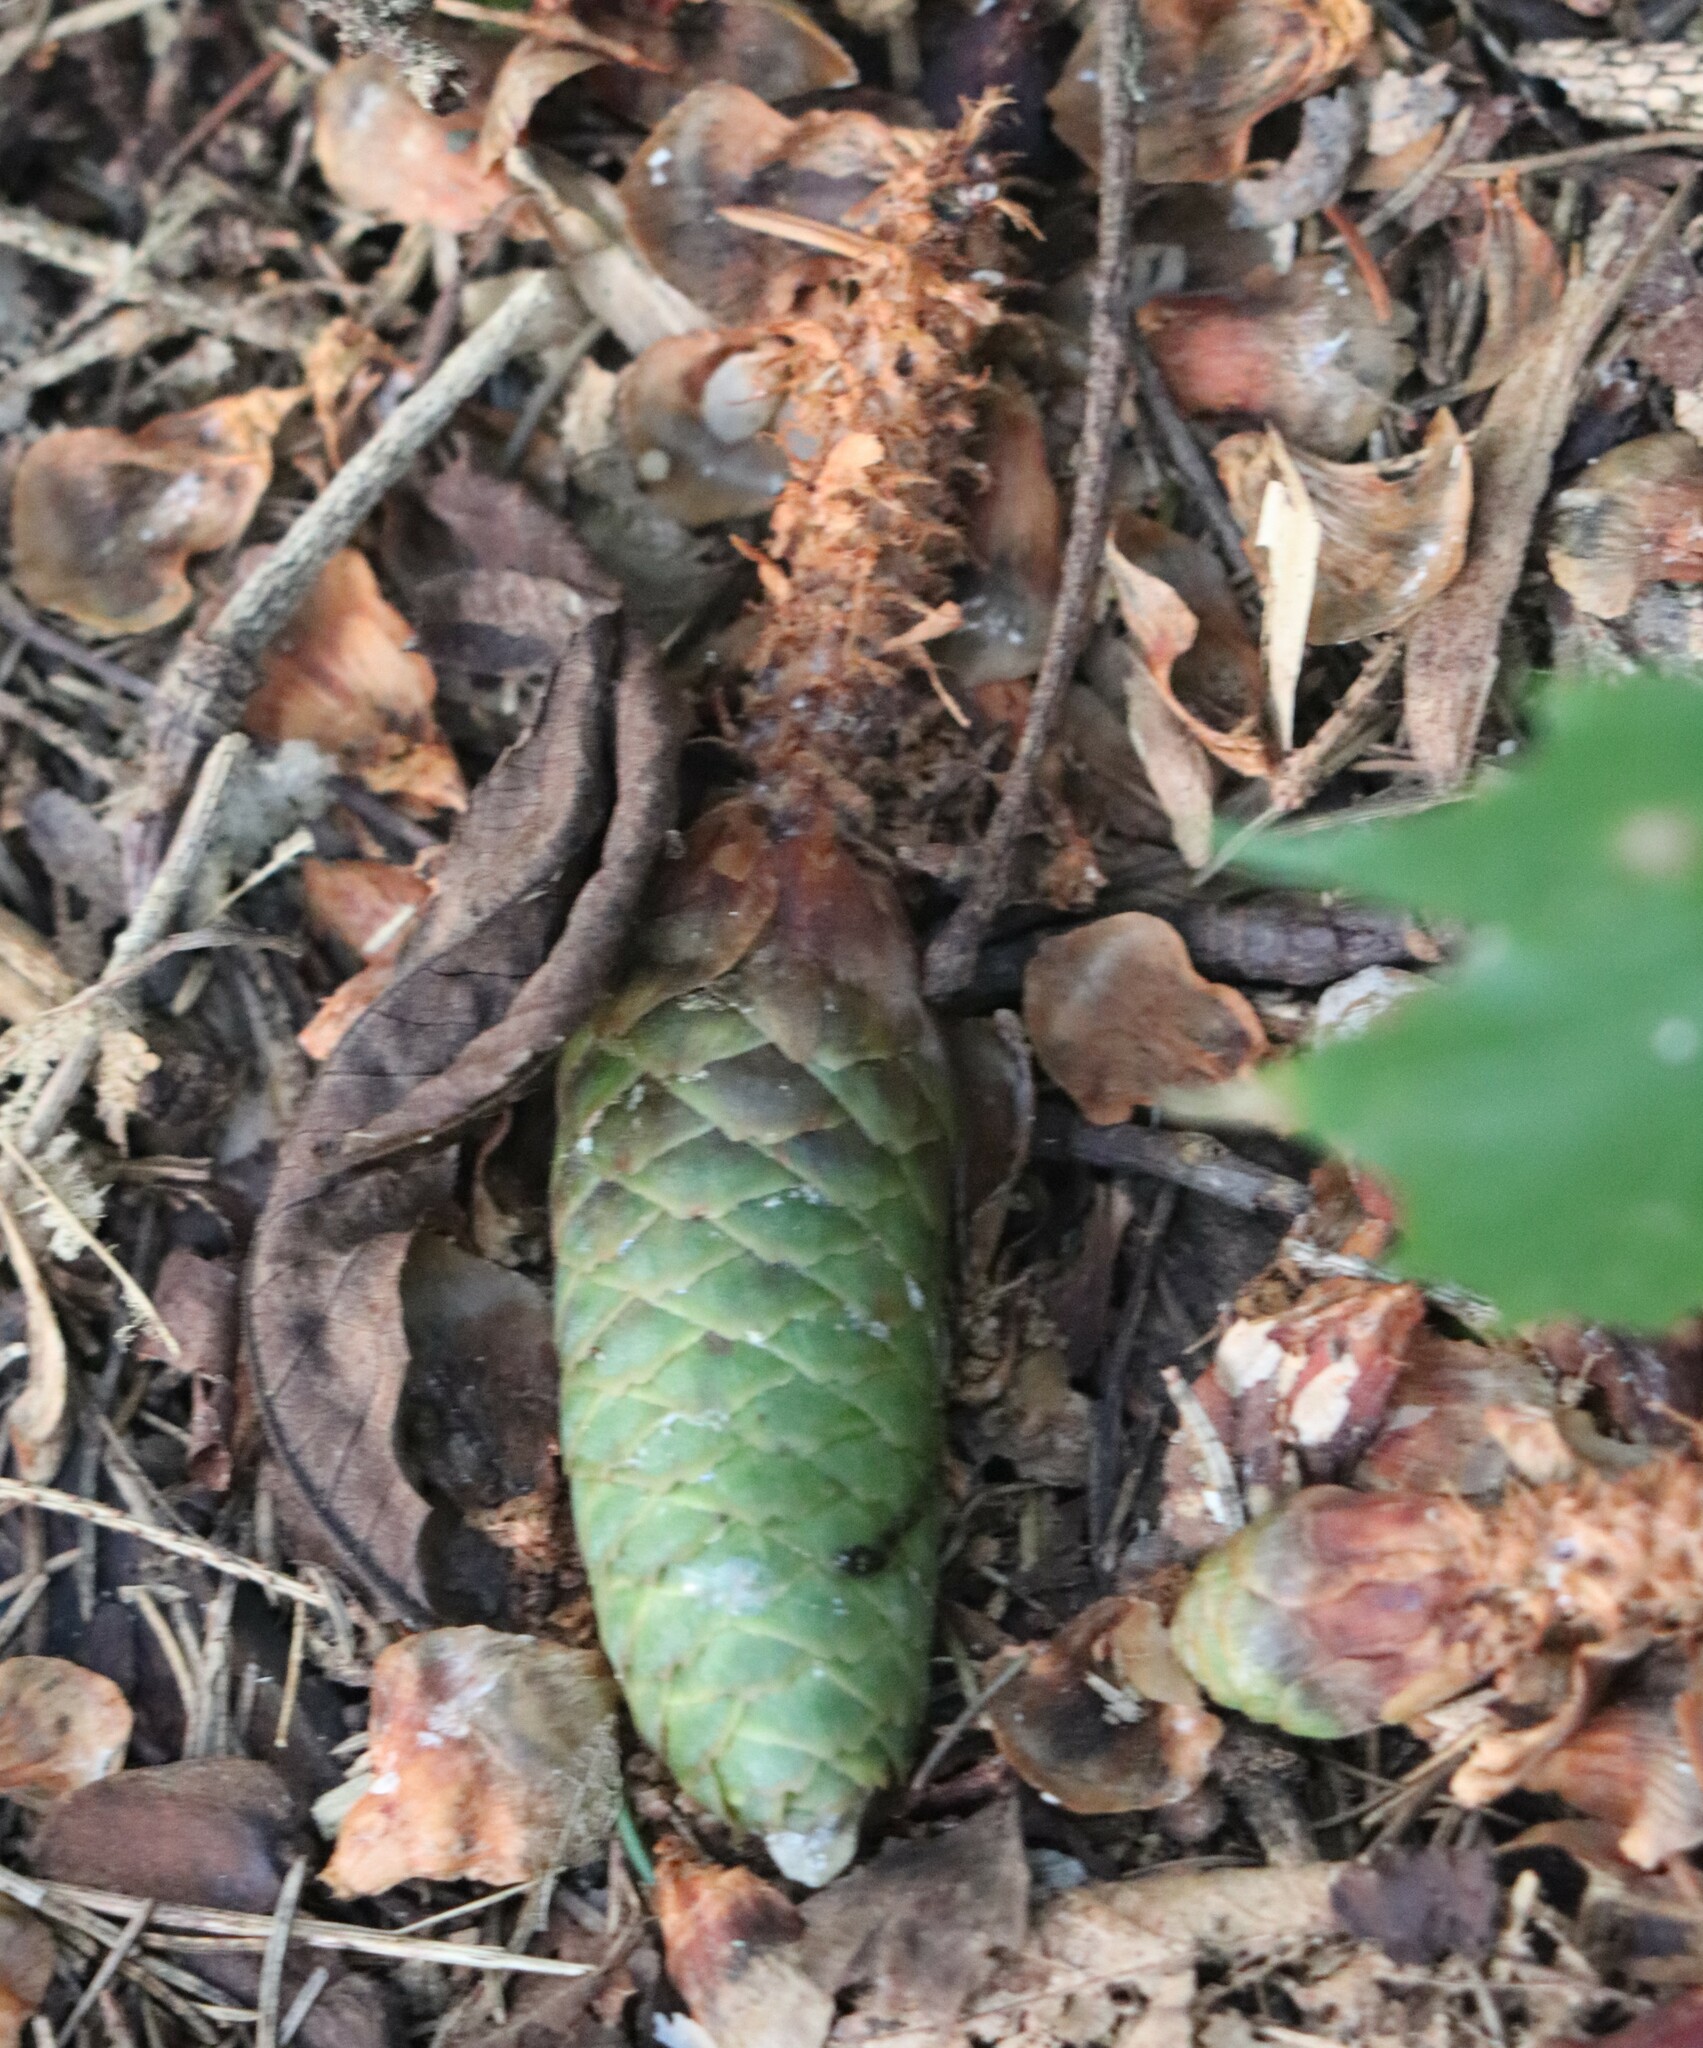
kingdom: Plantae
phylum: Tracheophyta
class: Pinopsida
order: Pinales
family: Pinaceae
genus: Picea
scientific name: Picea abies
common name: Norway spruce
